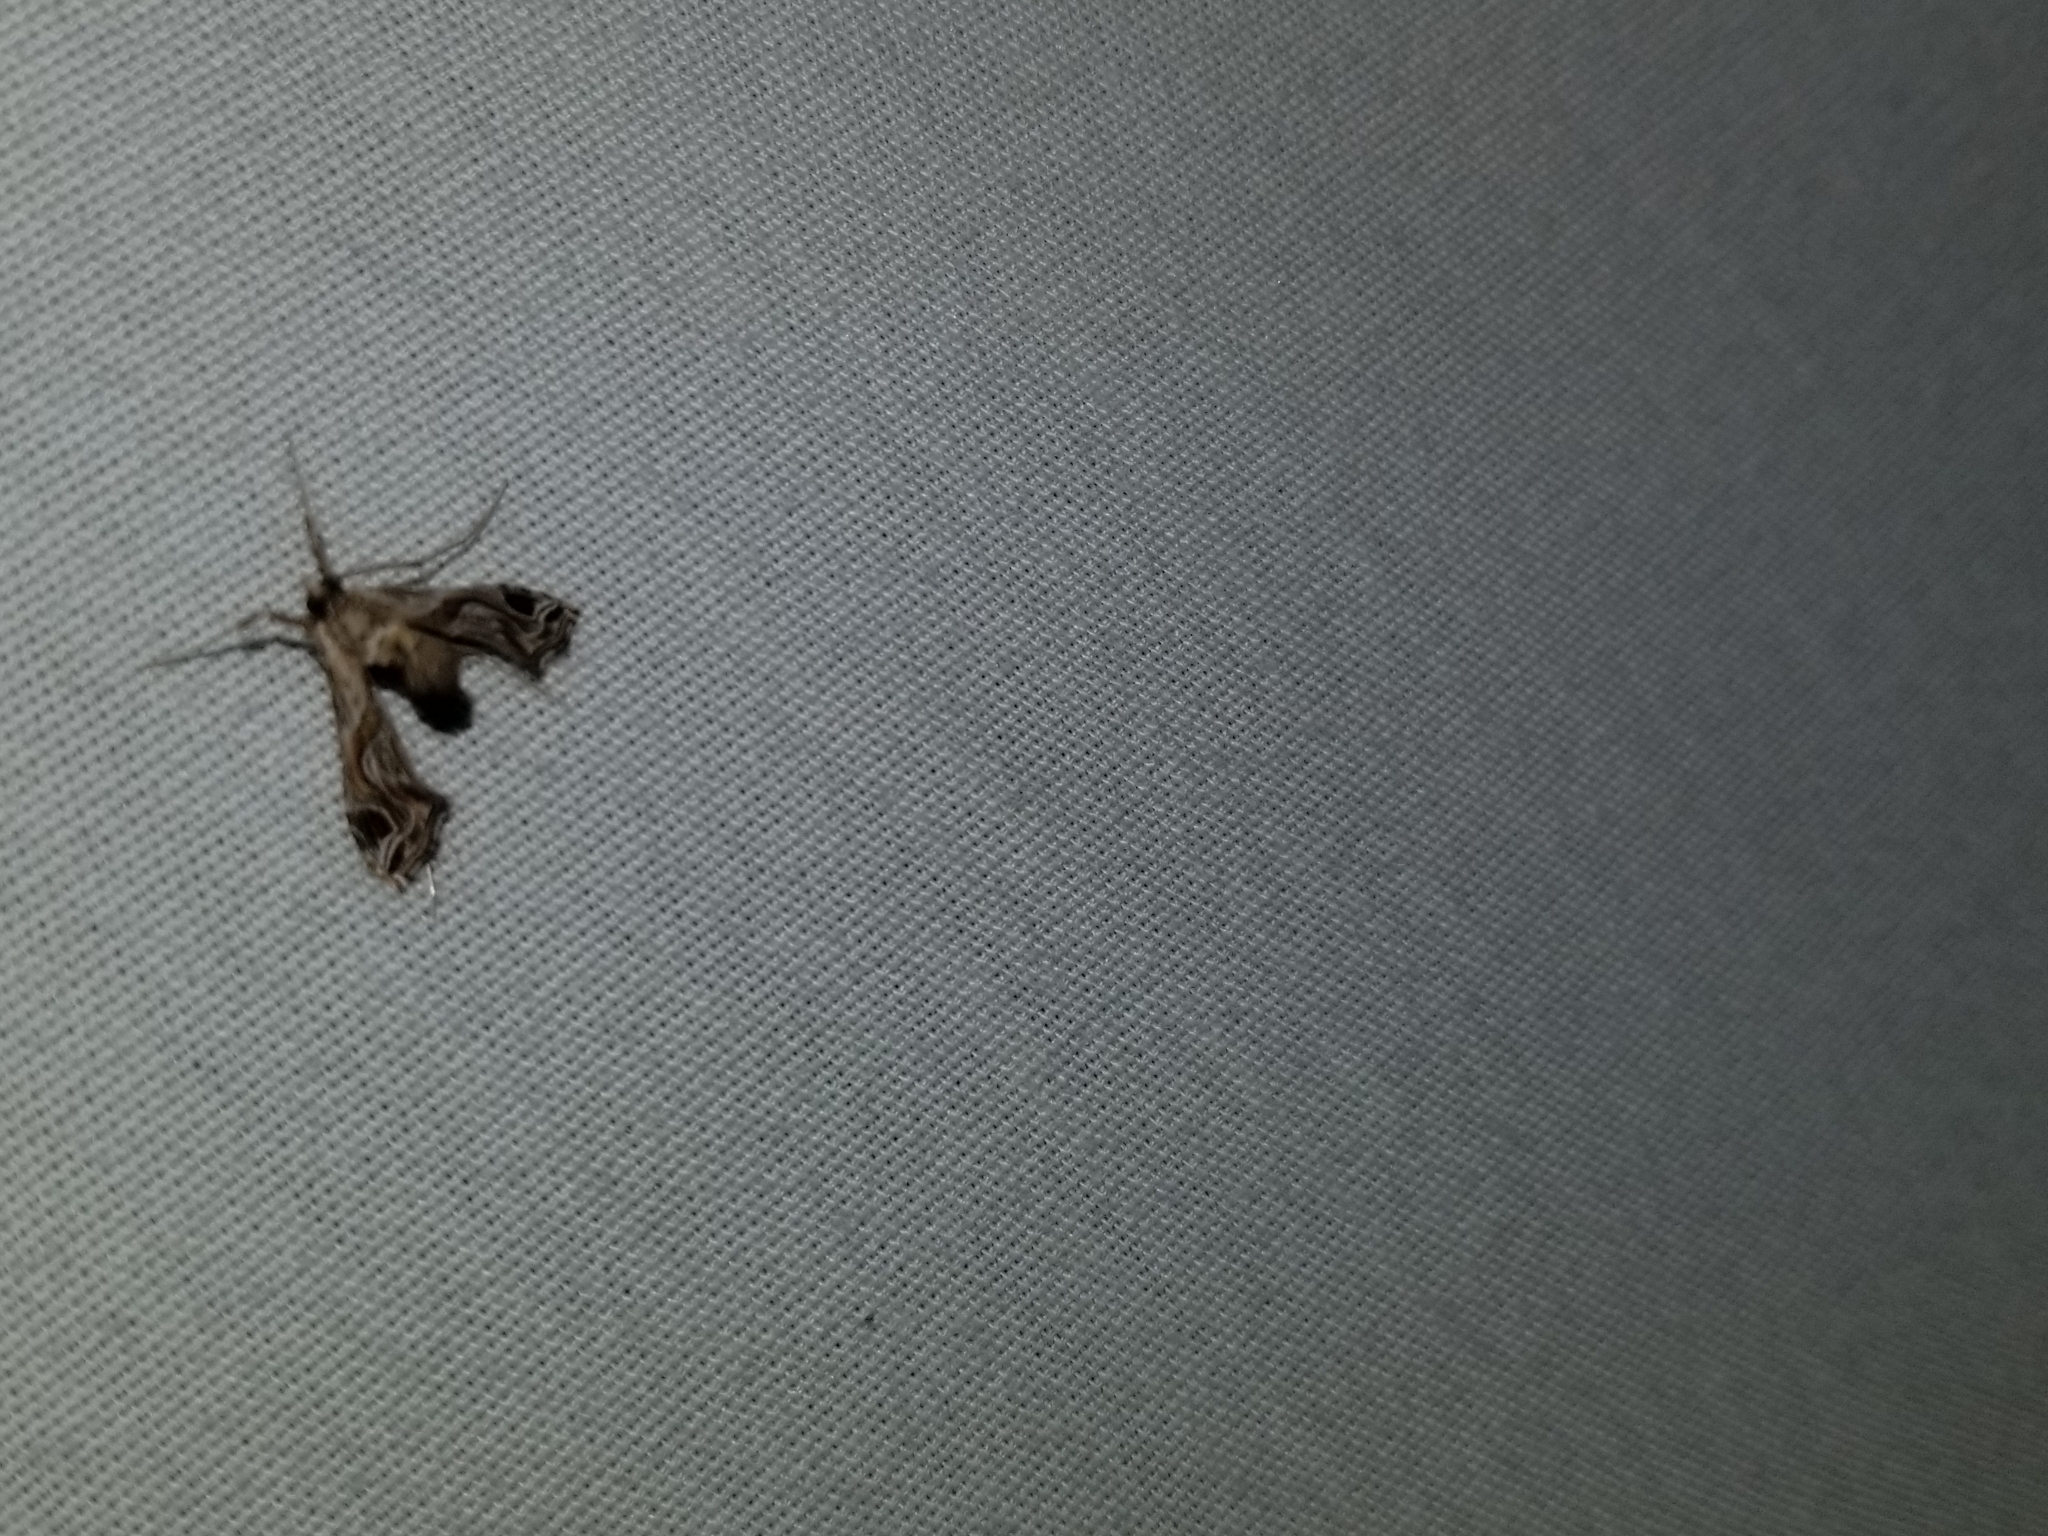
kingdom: Animalia
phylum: Arthropoda
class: Insecta
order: Lepidoptera
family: Crambidae
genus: Lineodes
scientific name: Lineodes integra
